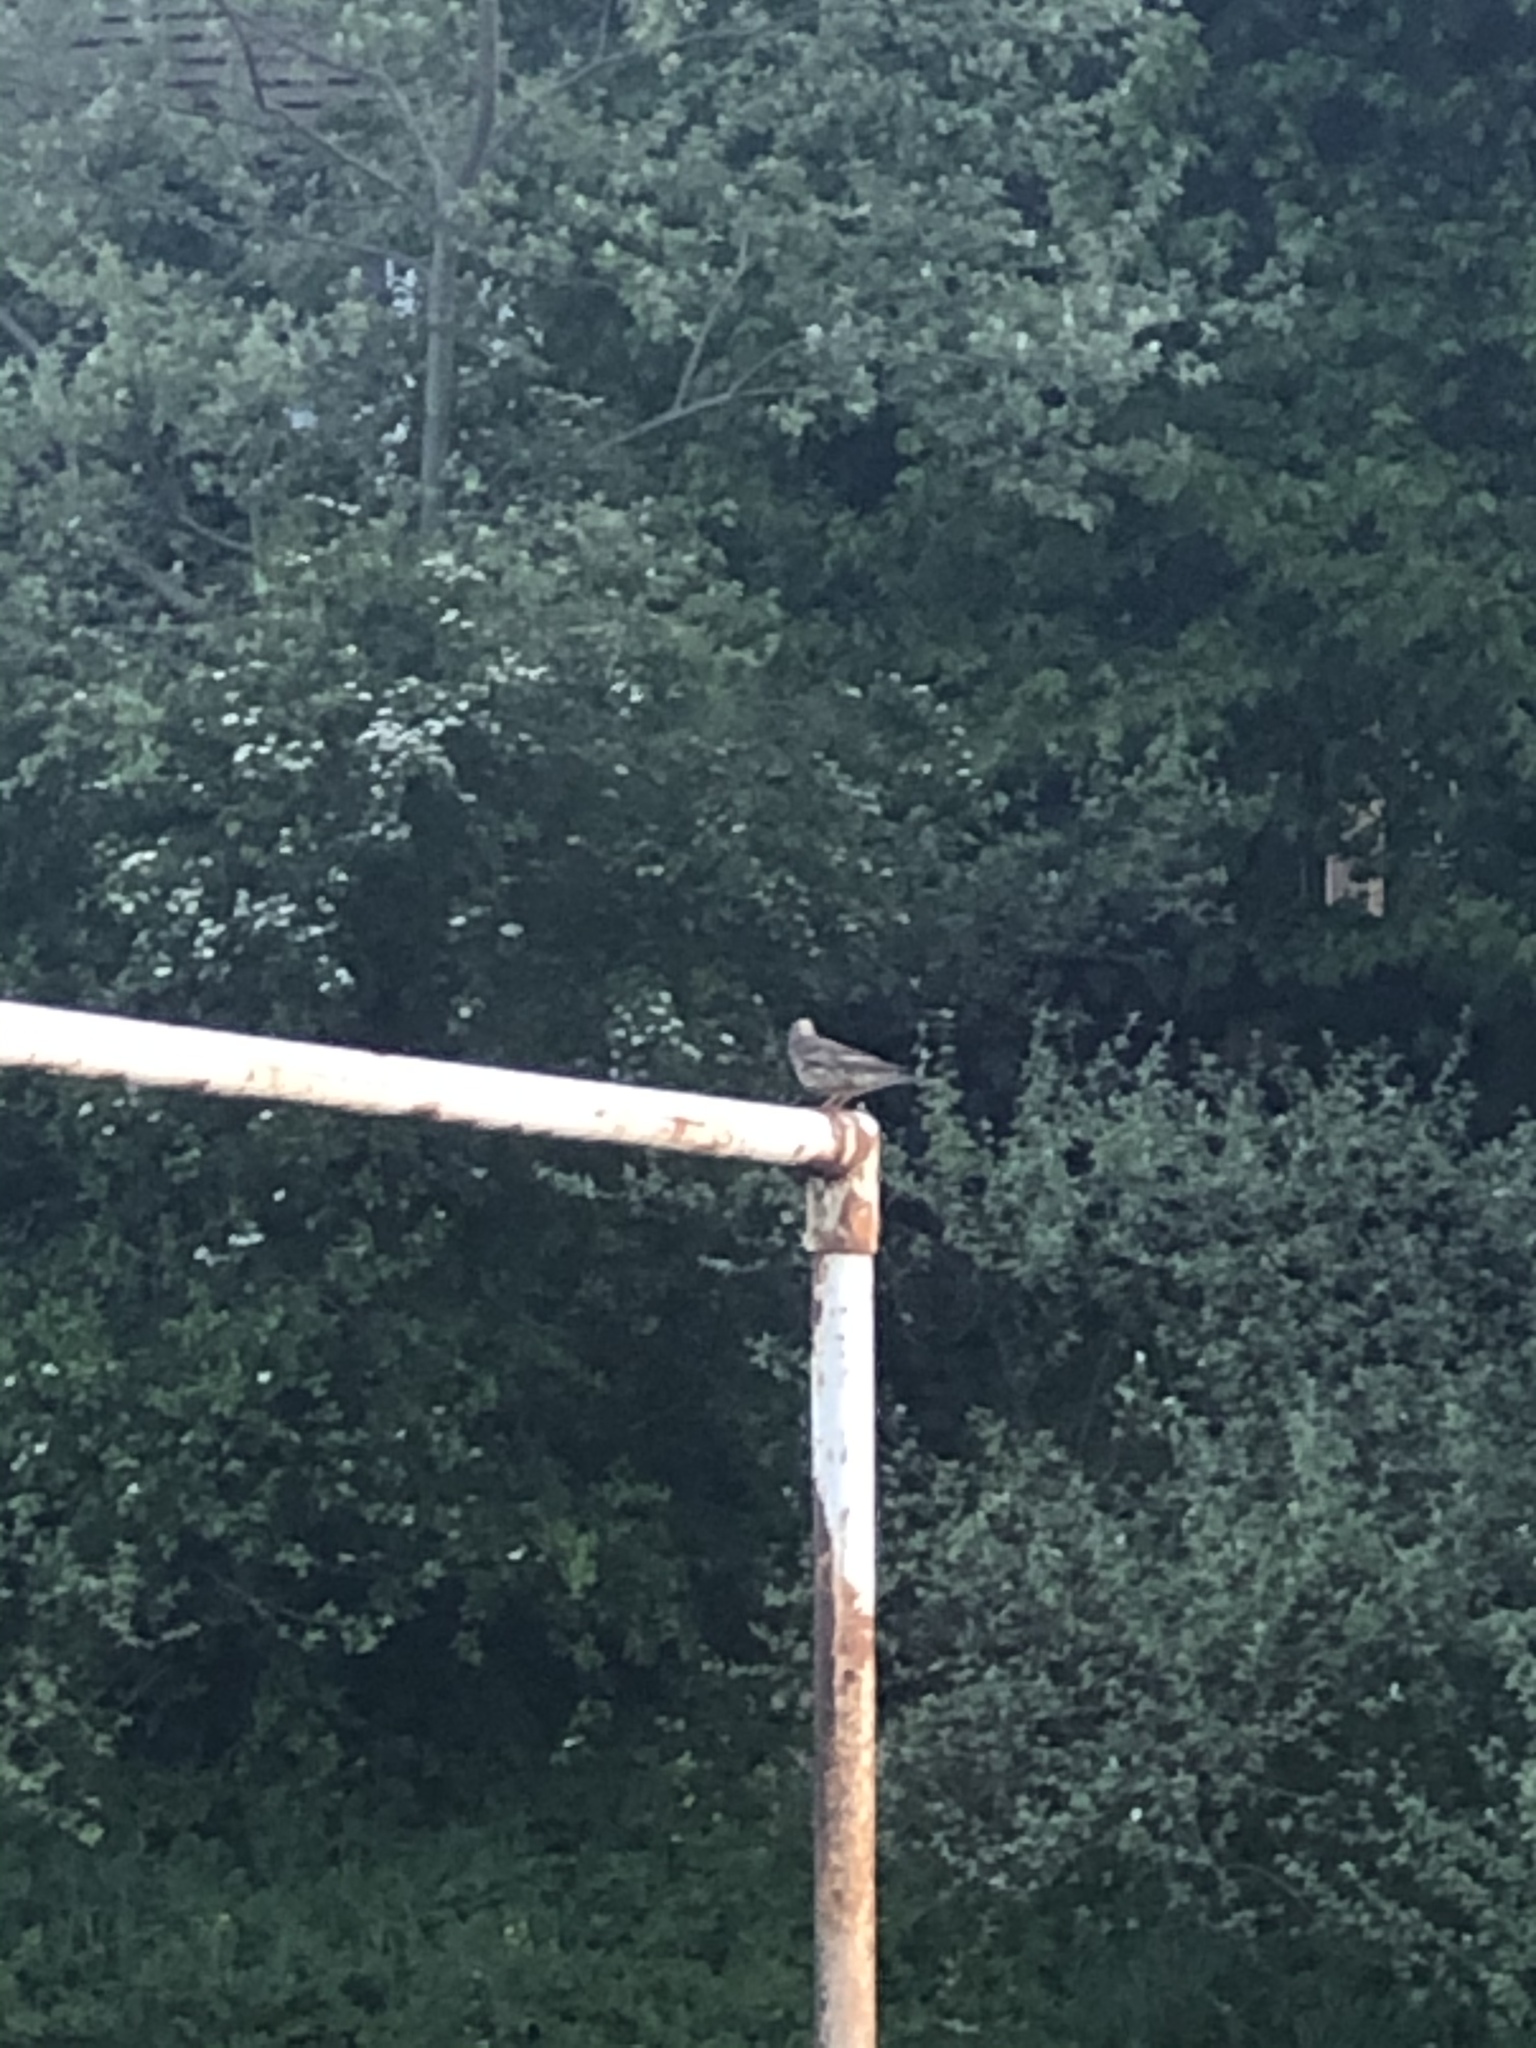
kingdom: Animalia
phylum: Chordata
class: Aves
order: Passeriformes
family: Turdidae
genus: Turdus
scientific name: Turdus viscivorus
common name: Mistle thrush
